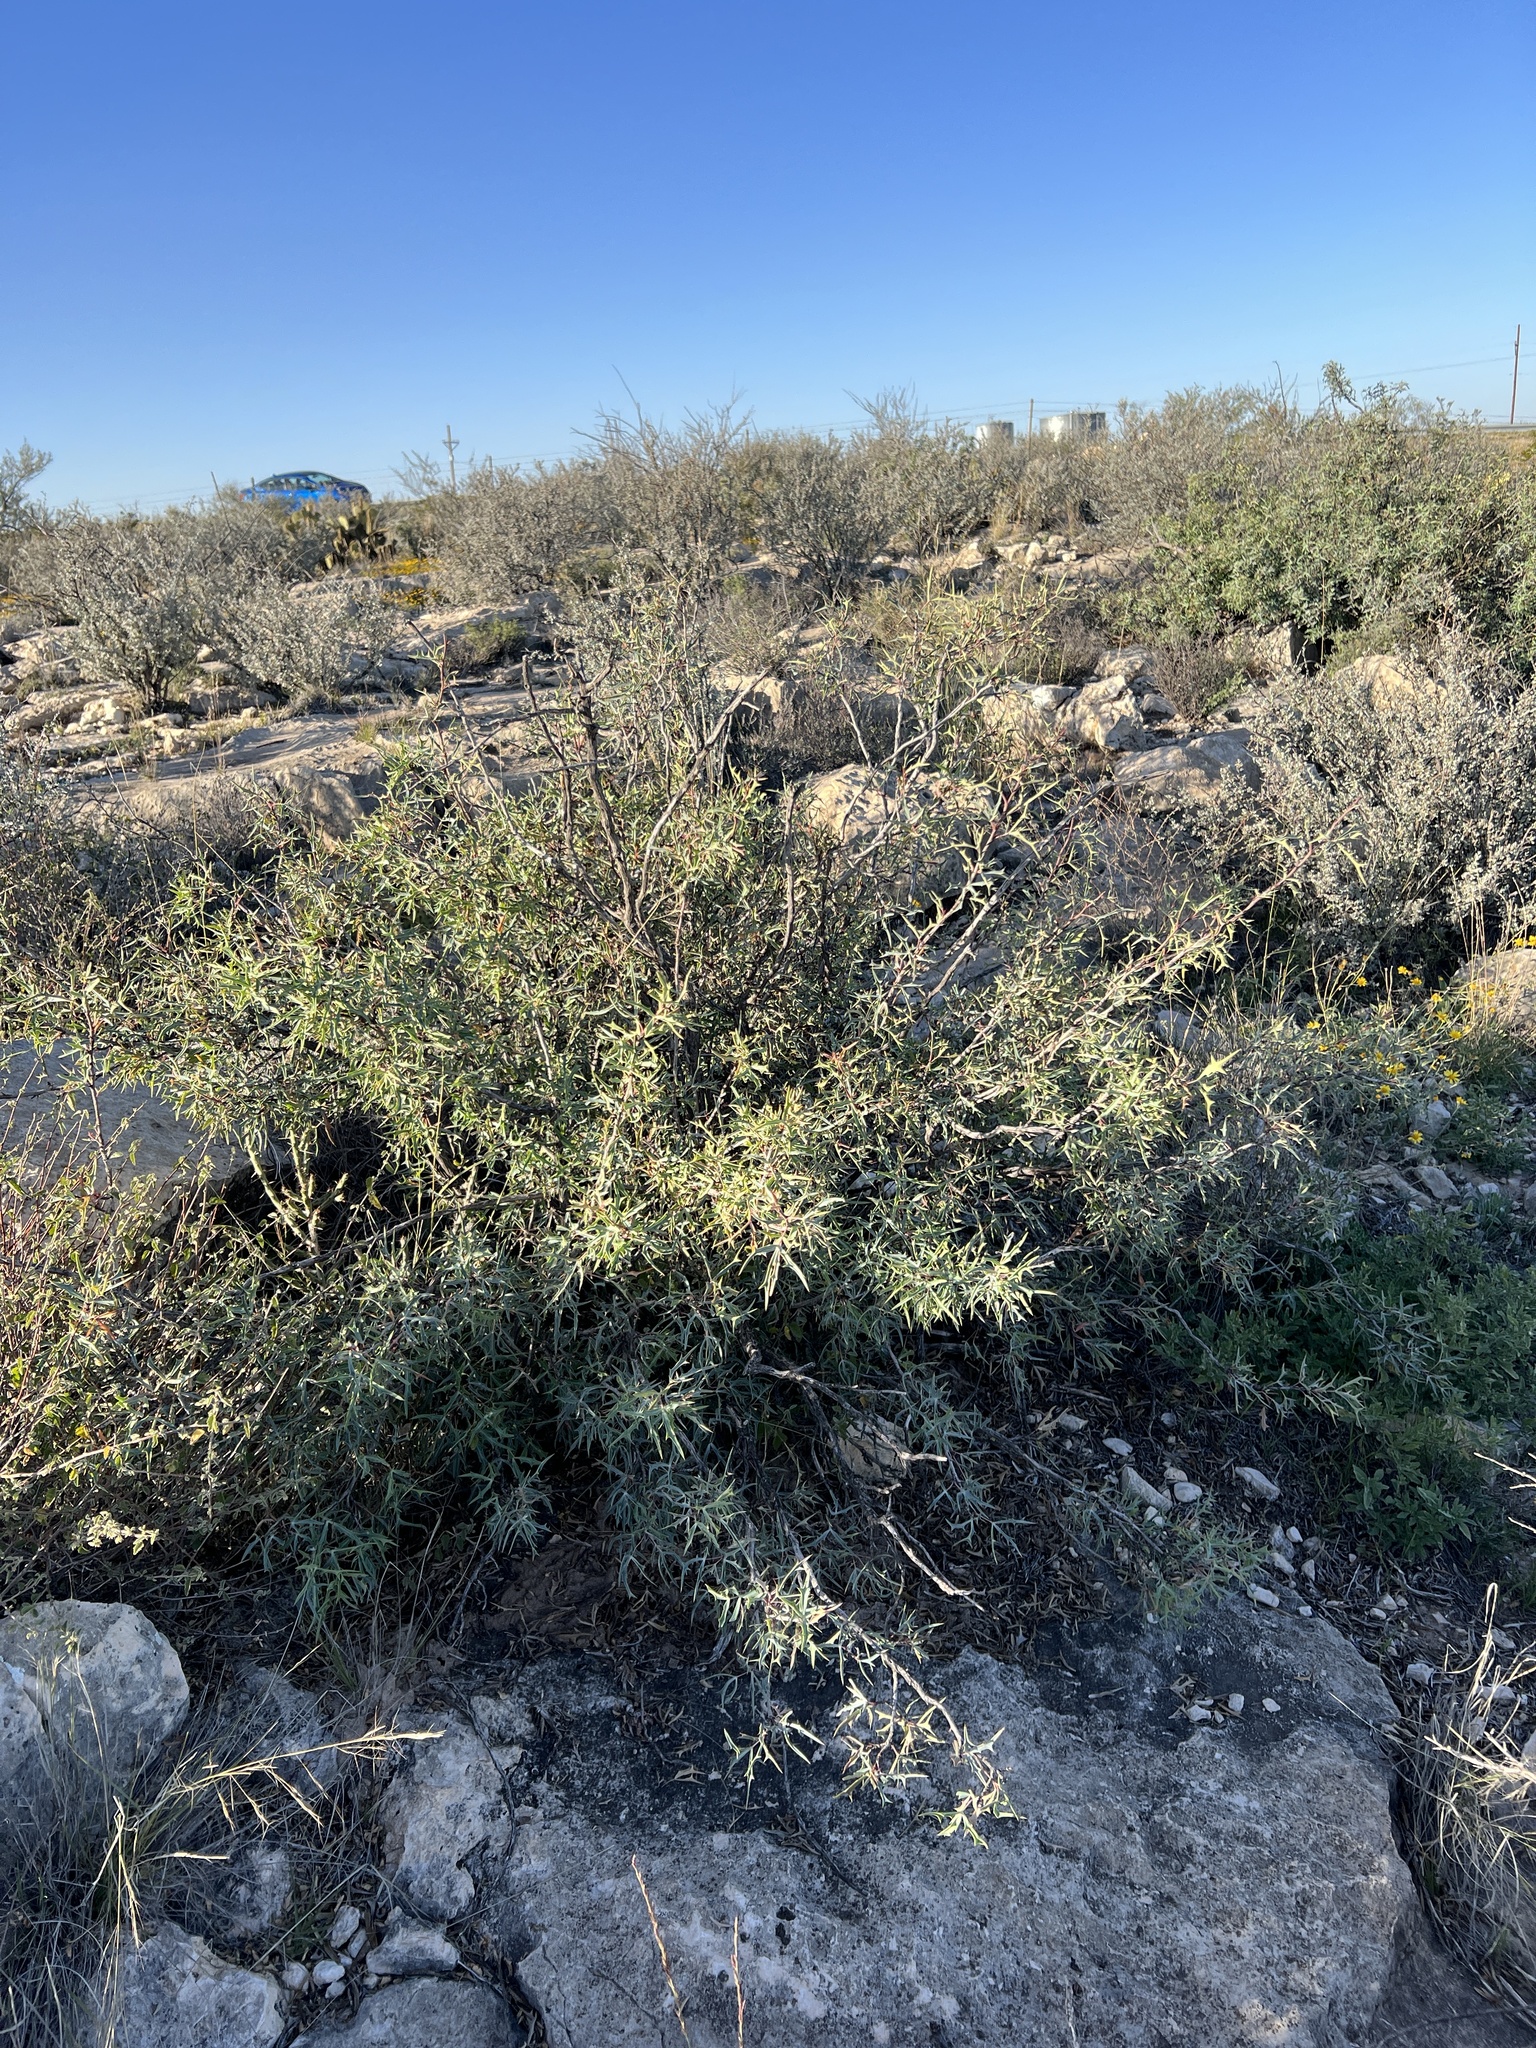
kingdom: Plantae
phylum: Tracheophyta
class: Magnoliopsida
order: Ranunculales
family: Berberidaceae
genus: Alloberberis
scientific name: Alloberberis trifoliolata
